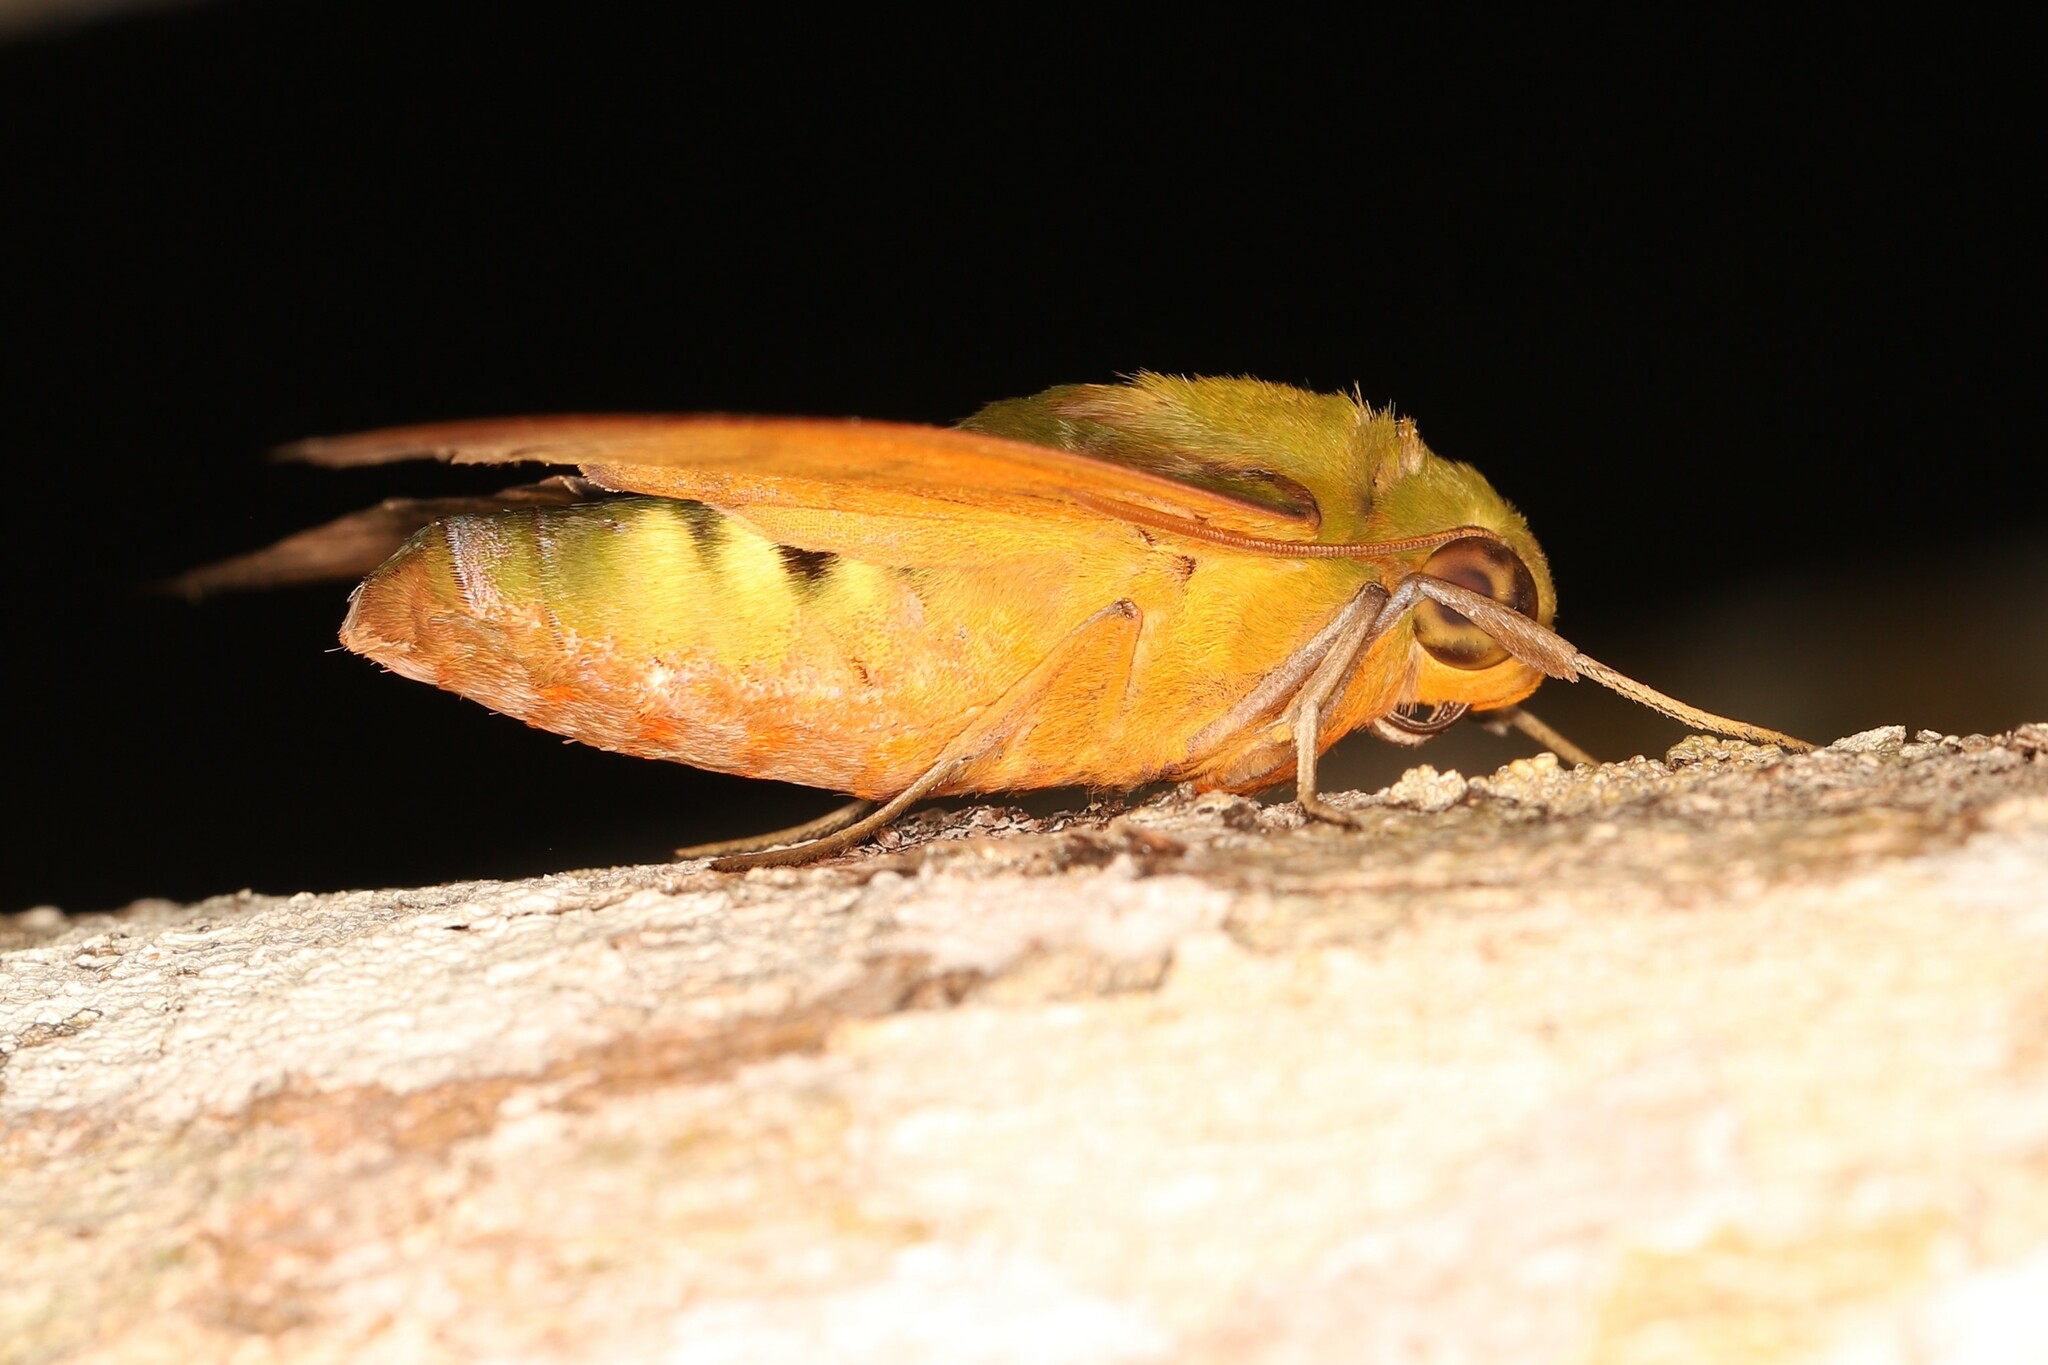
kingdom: Animalia
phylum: Arthropoda
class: Insecta
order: Lepidoptera
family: Sphingidae
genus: Oryba
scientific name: Oryba achemenides
